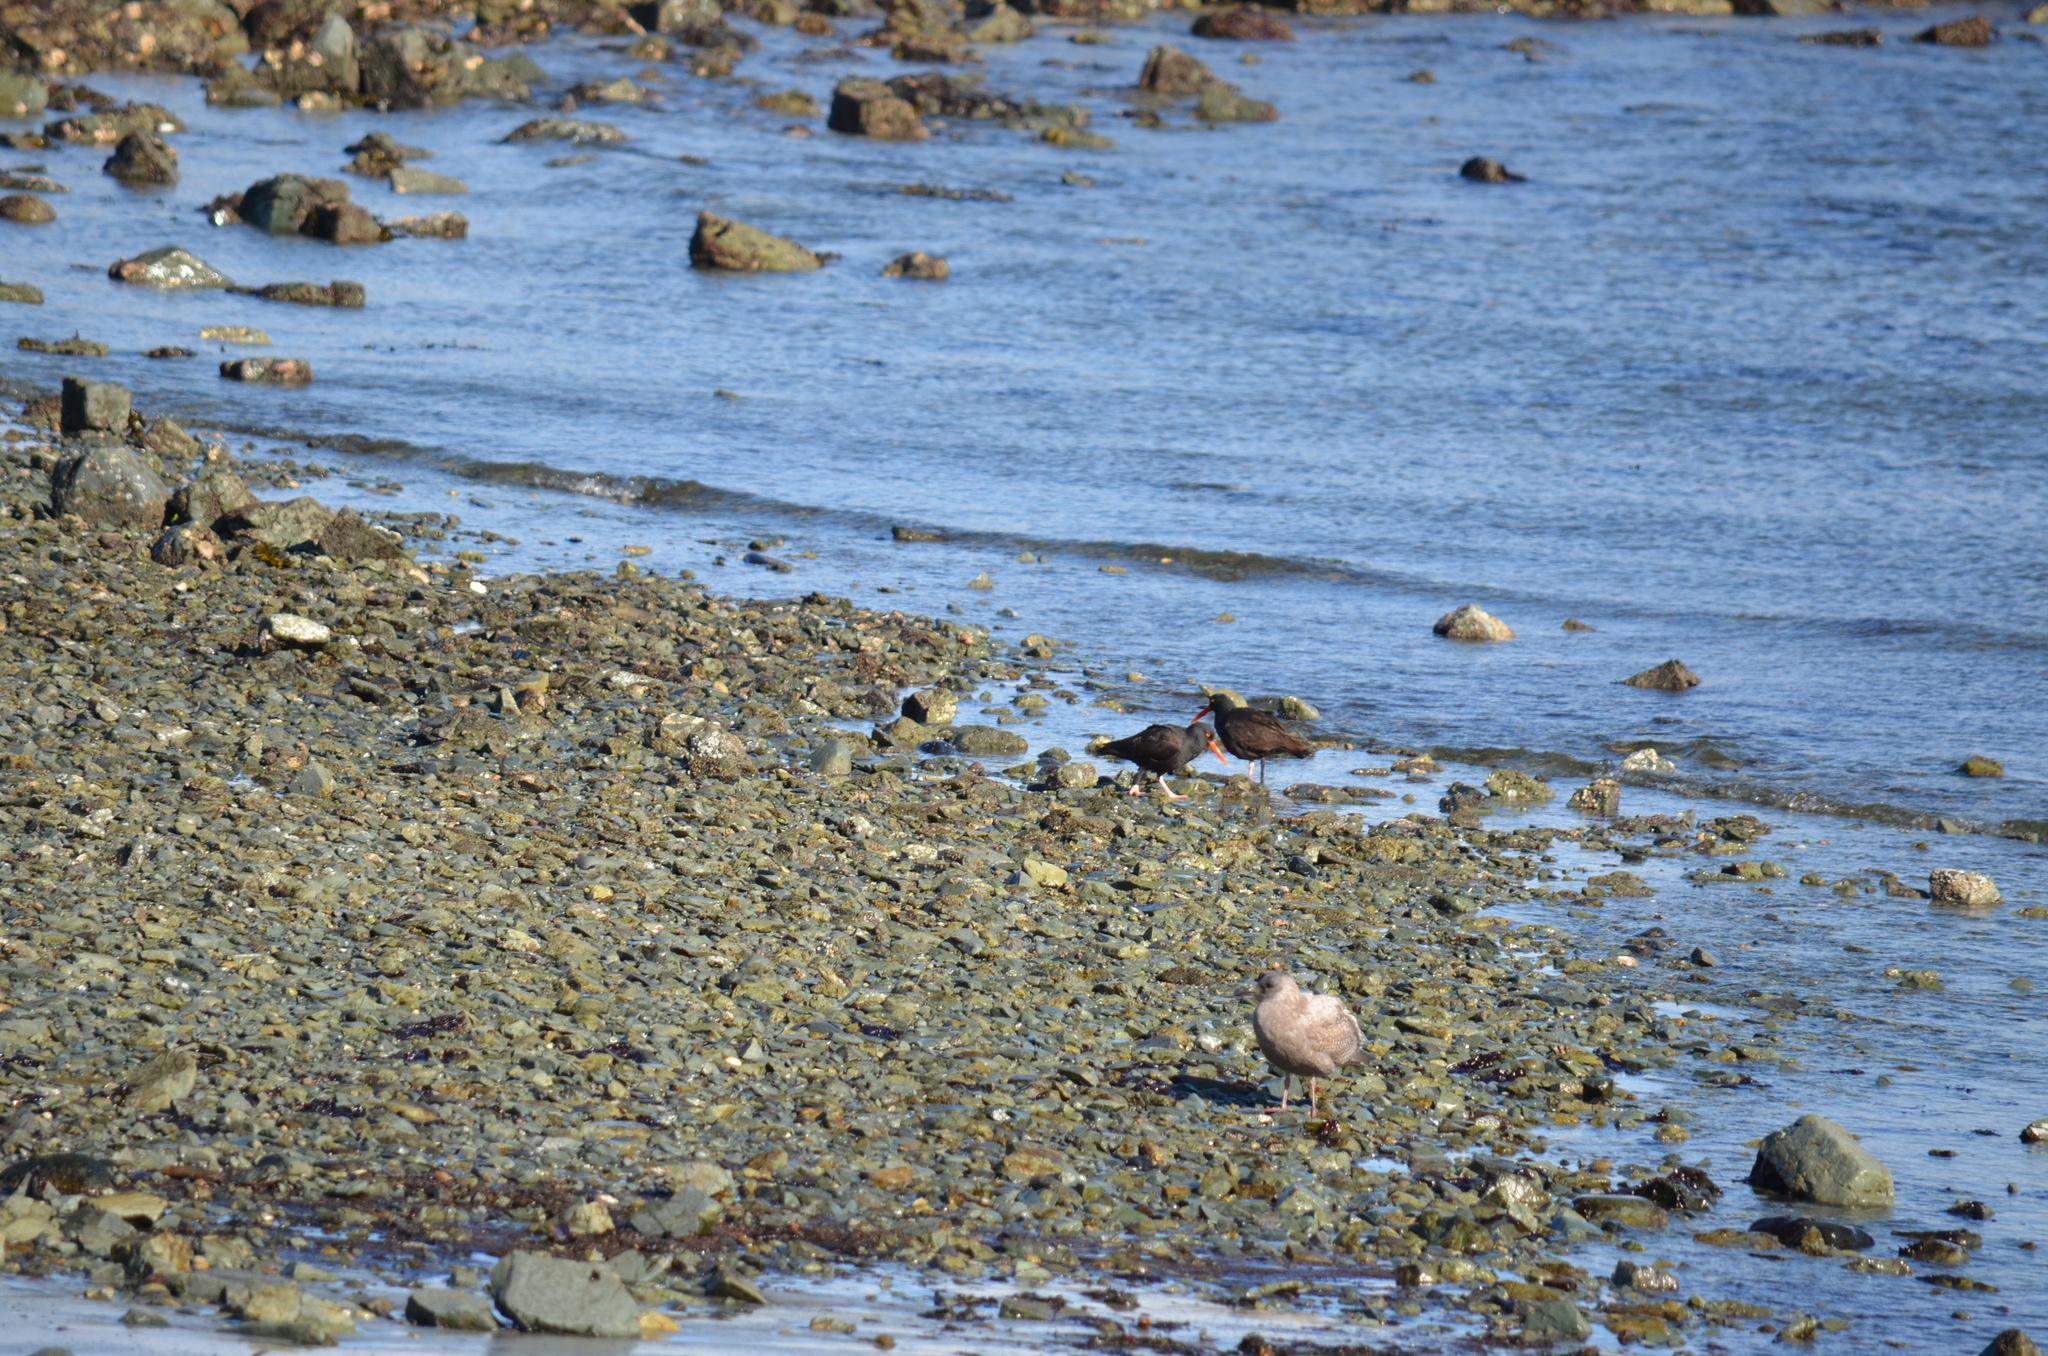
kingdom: Animalia
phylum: Chordata
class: Aves
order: Charadriiformes
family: Haematopodidae
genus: Haematopus
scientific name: Haematopus bachmani
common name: Black oystercatcher
